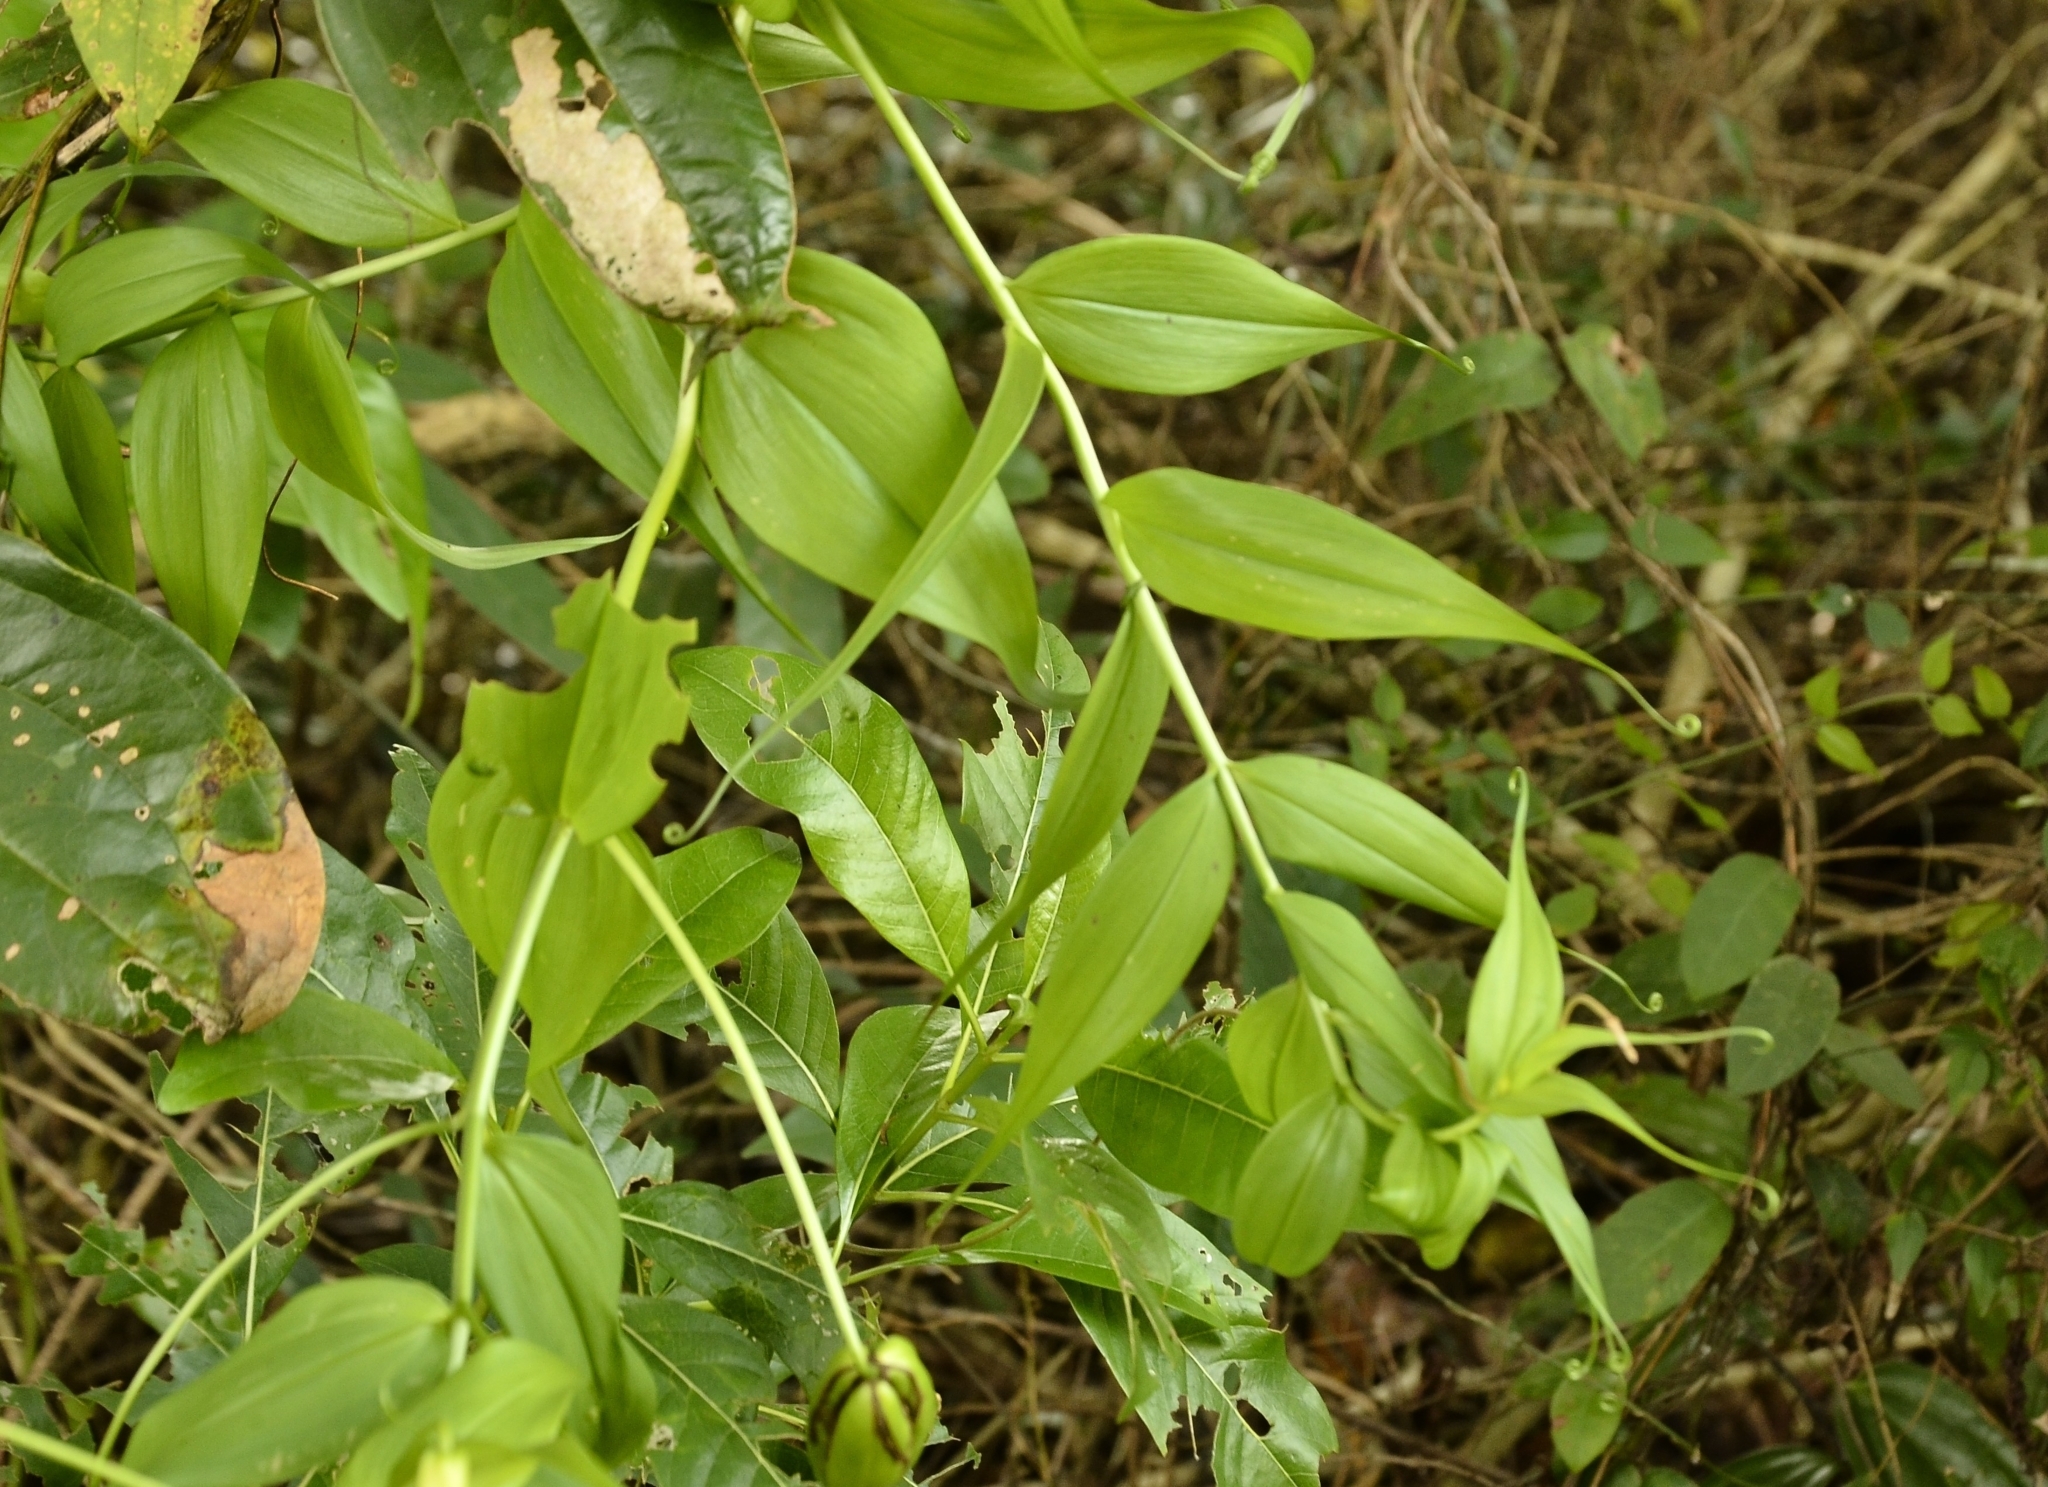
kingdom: Plantae
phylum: Tracheophyta
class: Liliopsida
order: Liliales
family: Colchicaceae
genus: Gloriosa
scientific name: Gloriosa superba
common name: Flame lily
